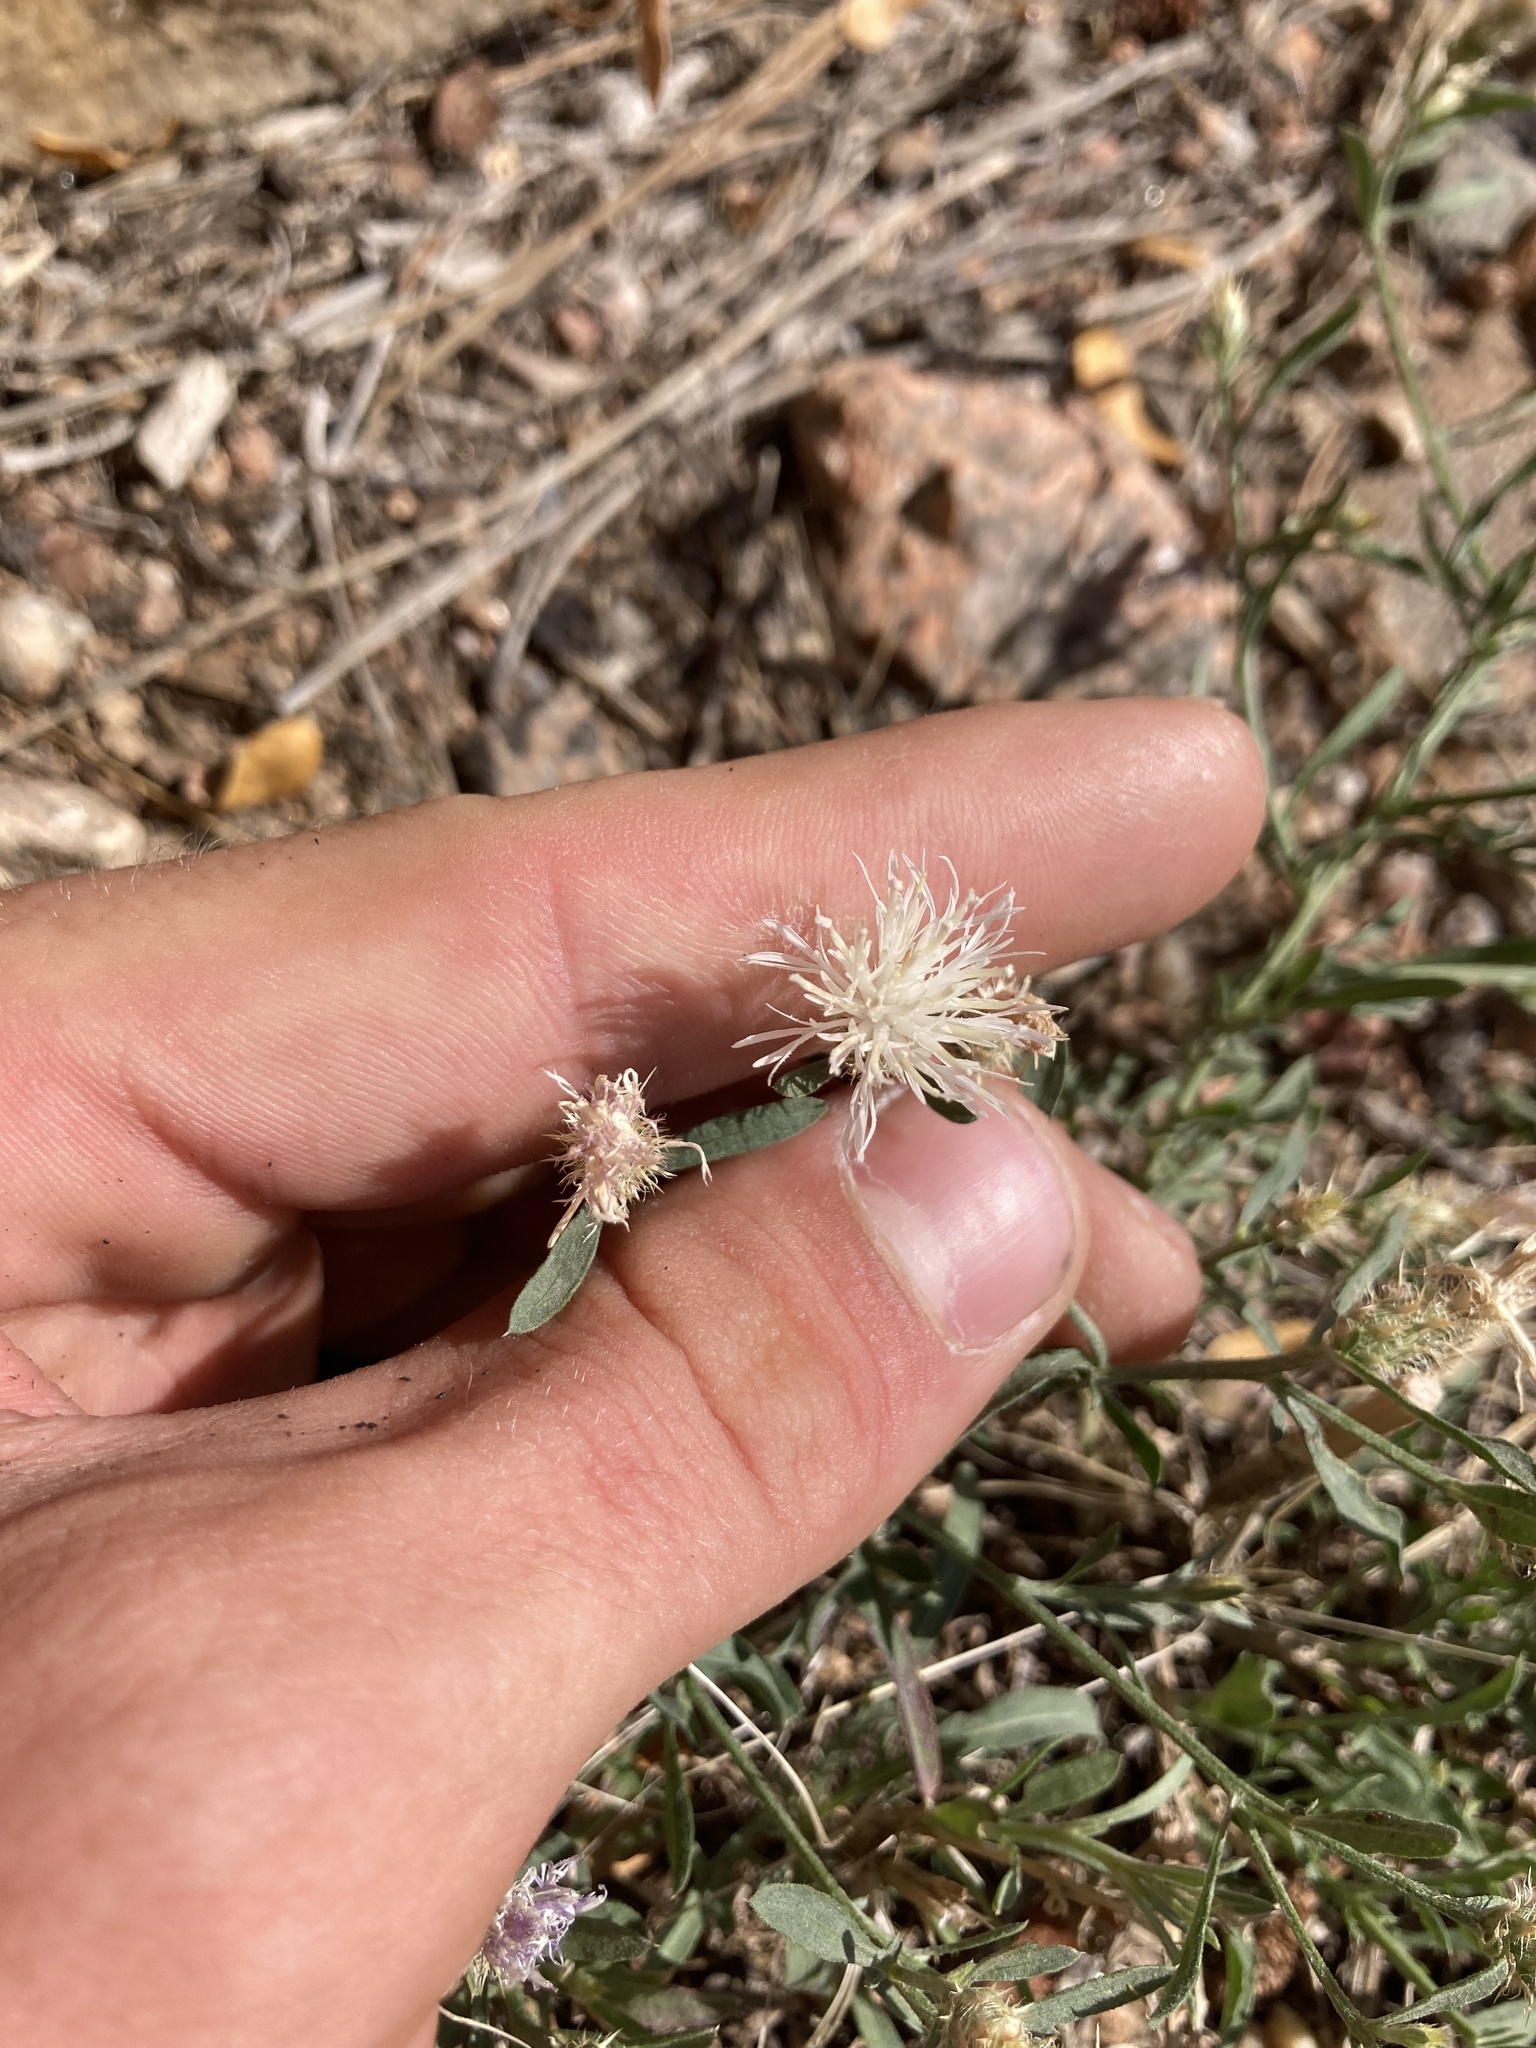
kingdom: Plantae
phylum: Tracheophyta
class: Magnoliopsida
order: Asterales
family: Asteraceae
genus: Centaurea
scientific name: Centaurea diffusa
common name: Diffuse knapweed
